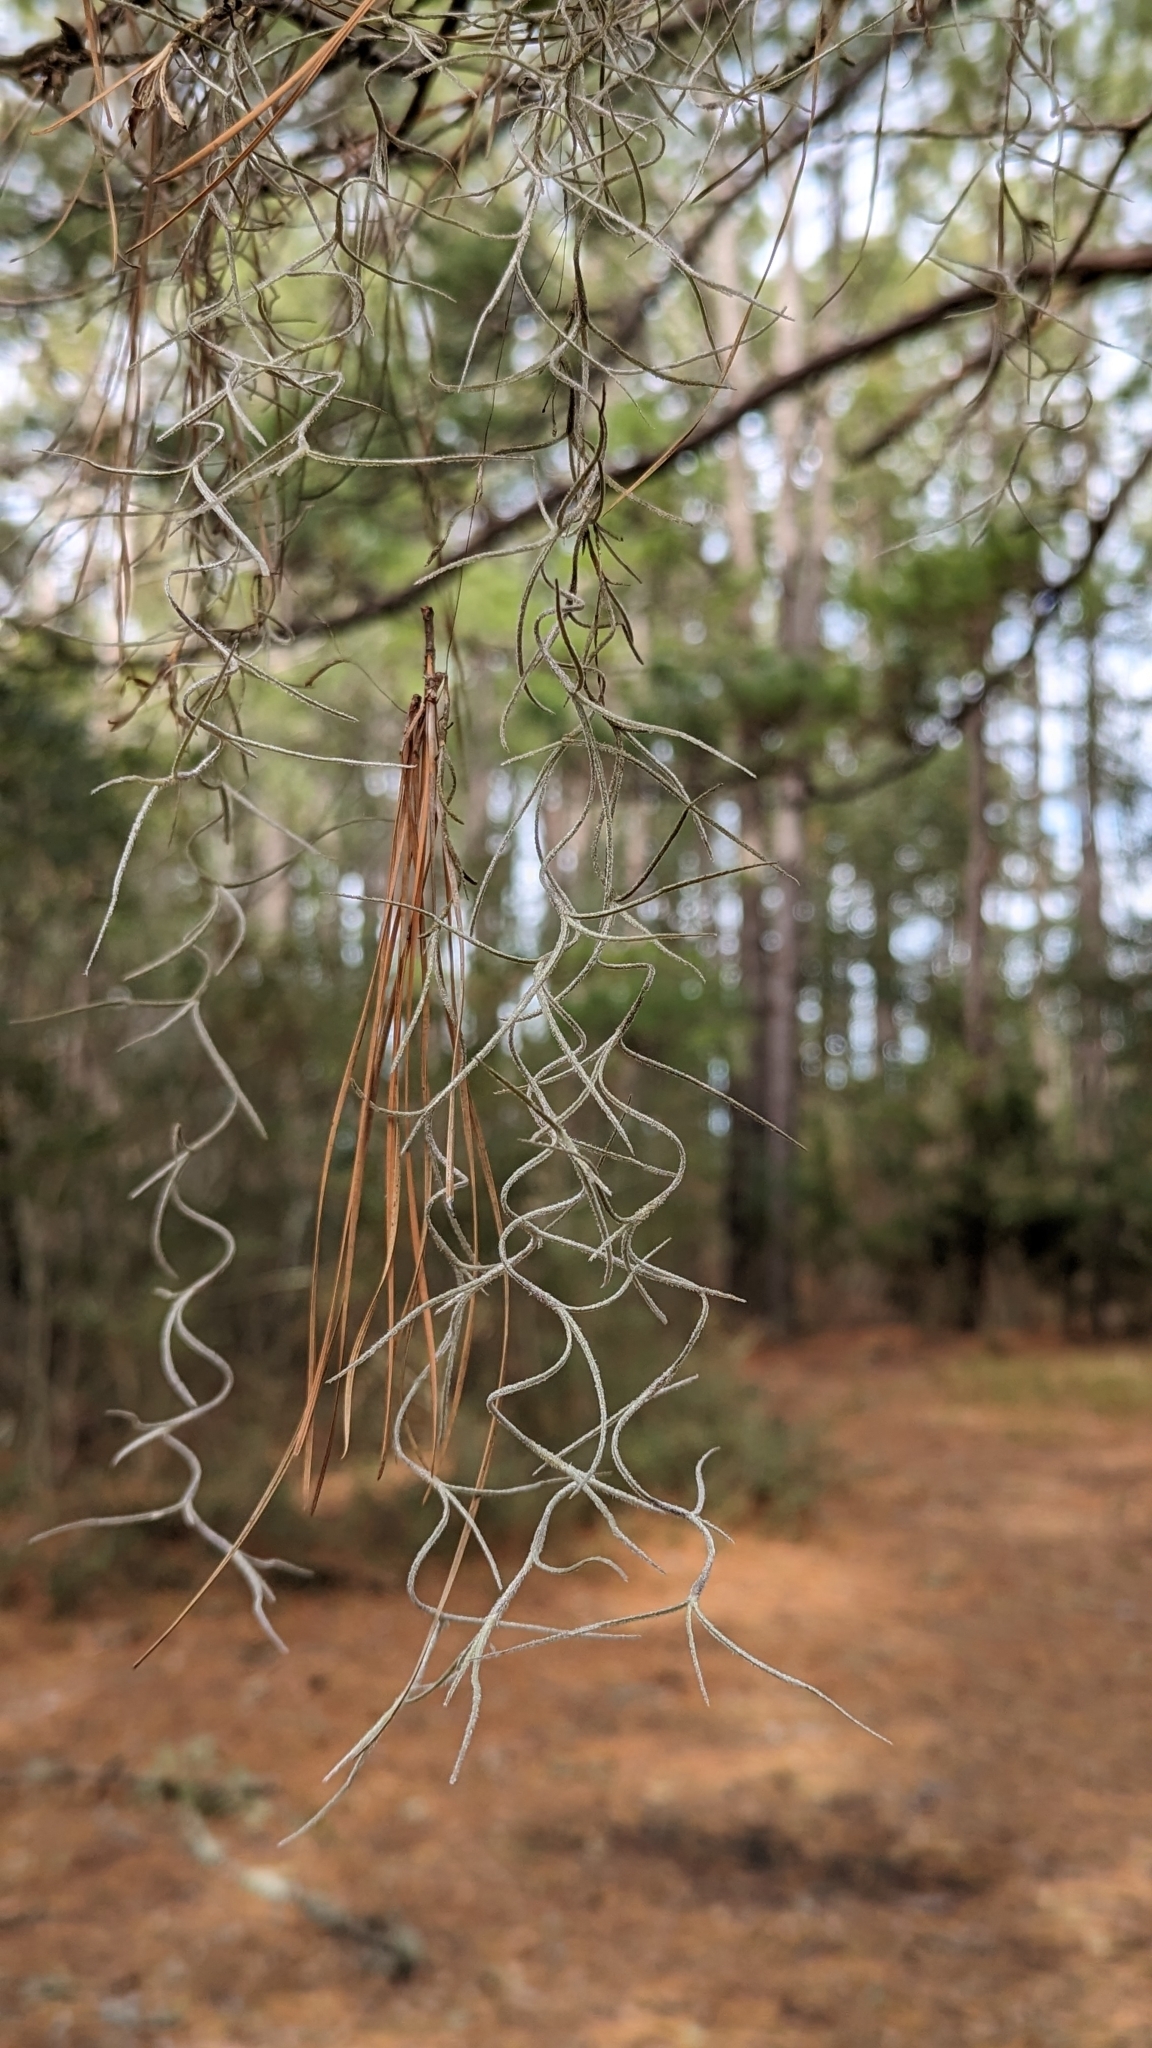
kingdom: Plantae
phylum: Tracheophyta
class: Liliopsida
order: Poales
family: Bromeliaceae
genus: Tillandsia
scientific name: Tillandsia usneoides
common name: Spanish moss
